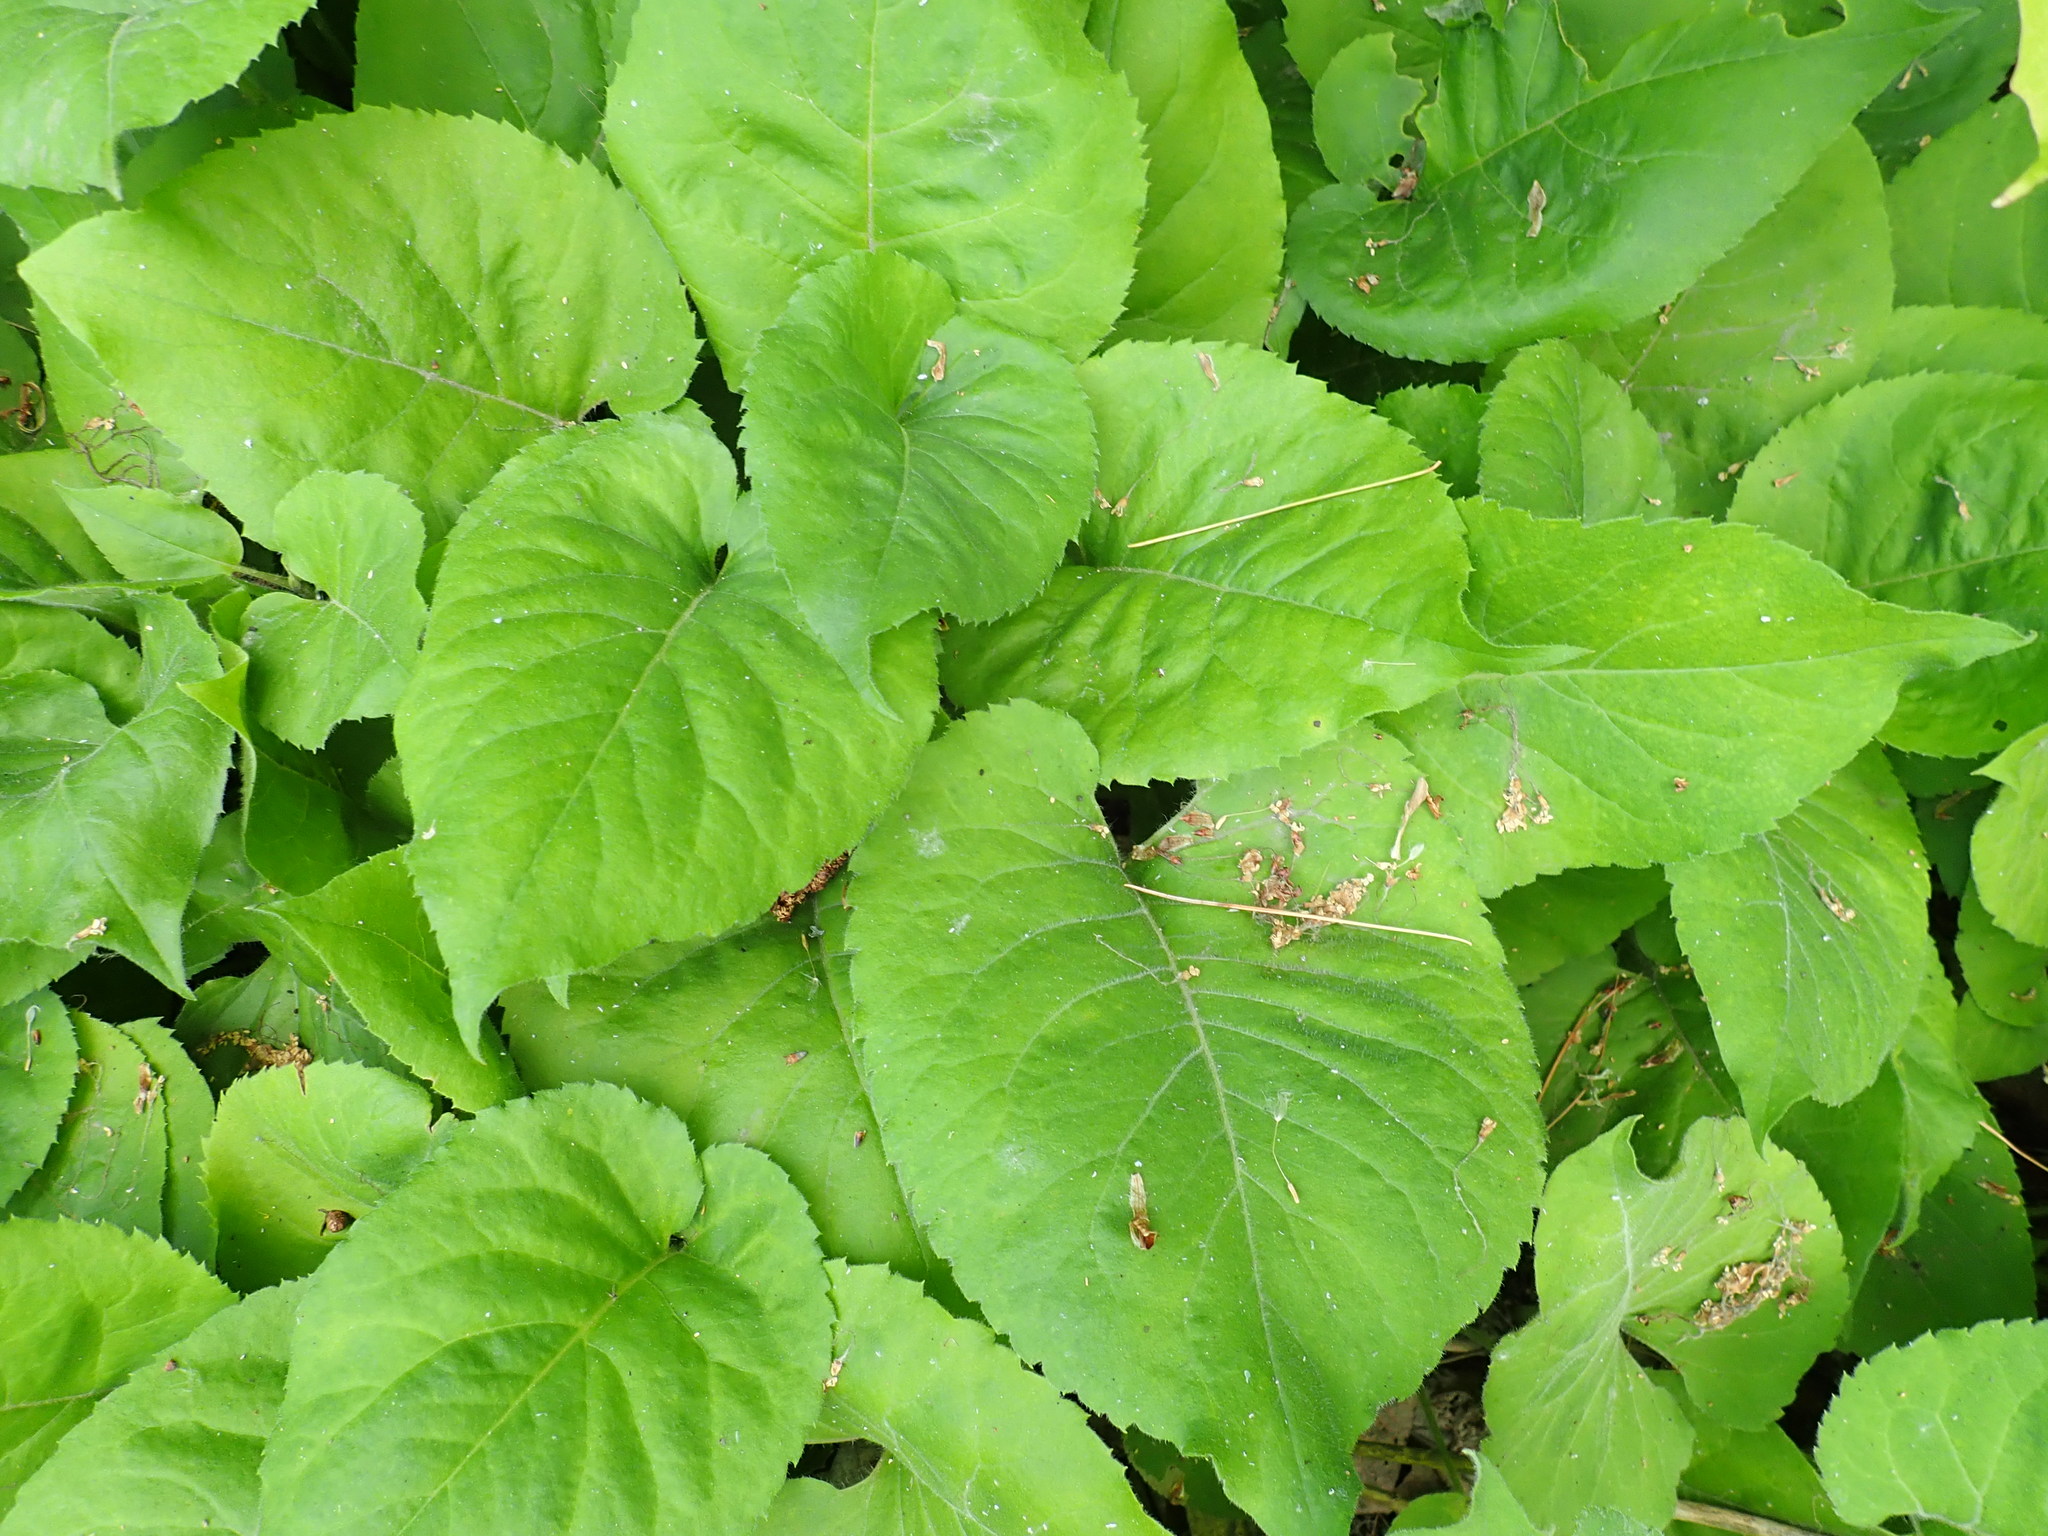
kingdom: Plantae
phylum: Tracheophyta
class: Magnoliopsida
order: Asterales
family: Asteraceae
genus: Eurybia
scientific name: Eurybia macrophylla
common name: Big-leaved aster
